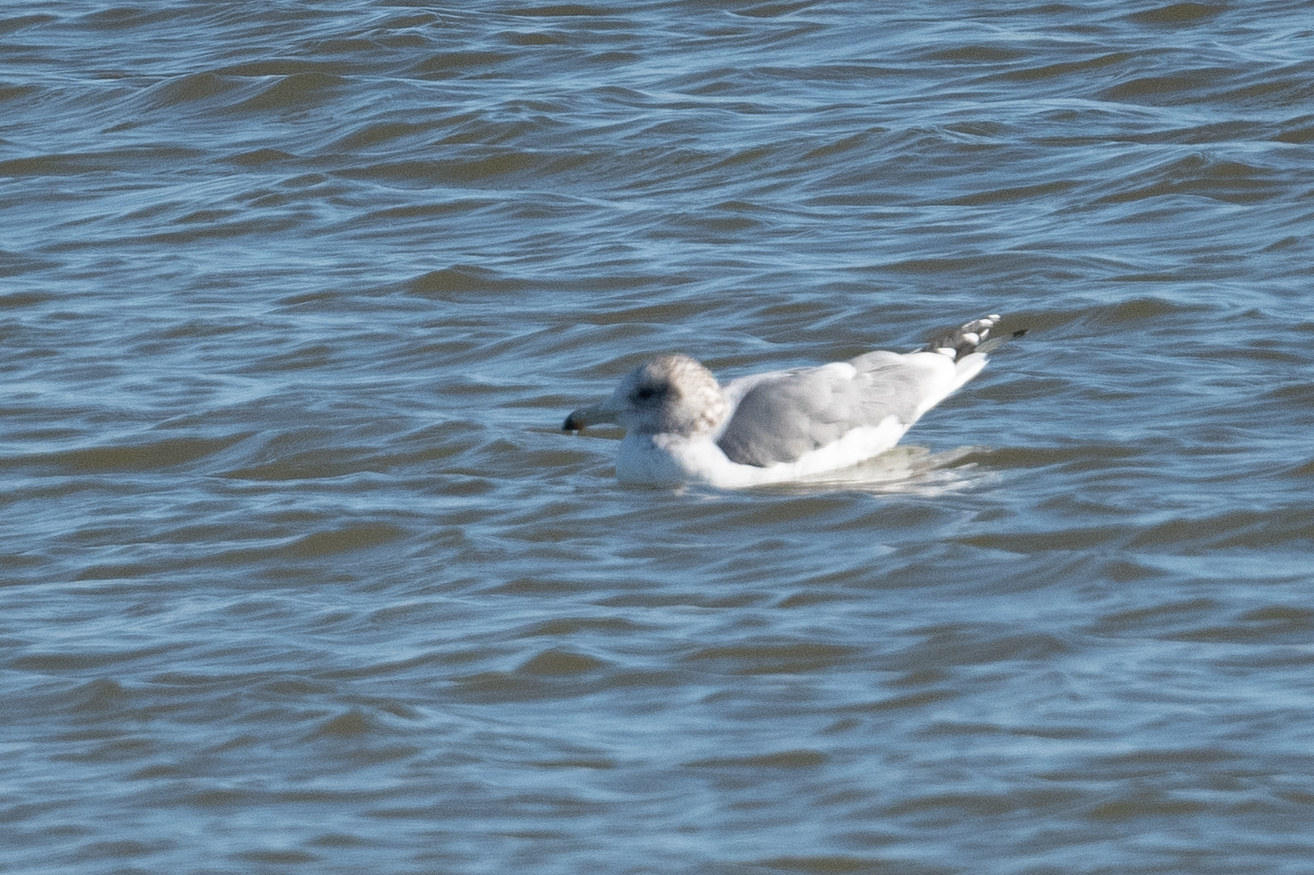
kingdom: Animalia
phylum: Chordata
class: Aves
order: Charadriiformes
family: Laridae
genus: Larus
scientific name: Larus californicus
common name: California gull
